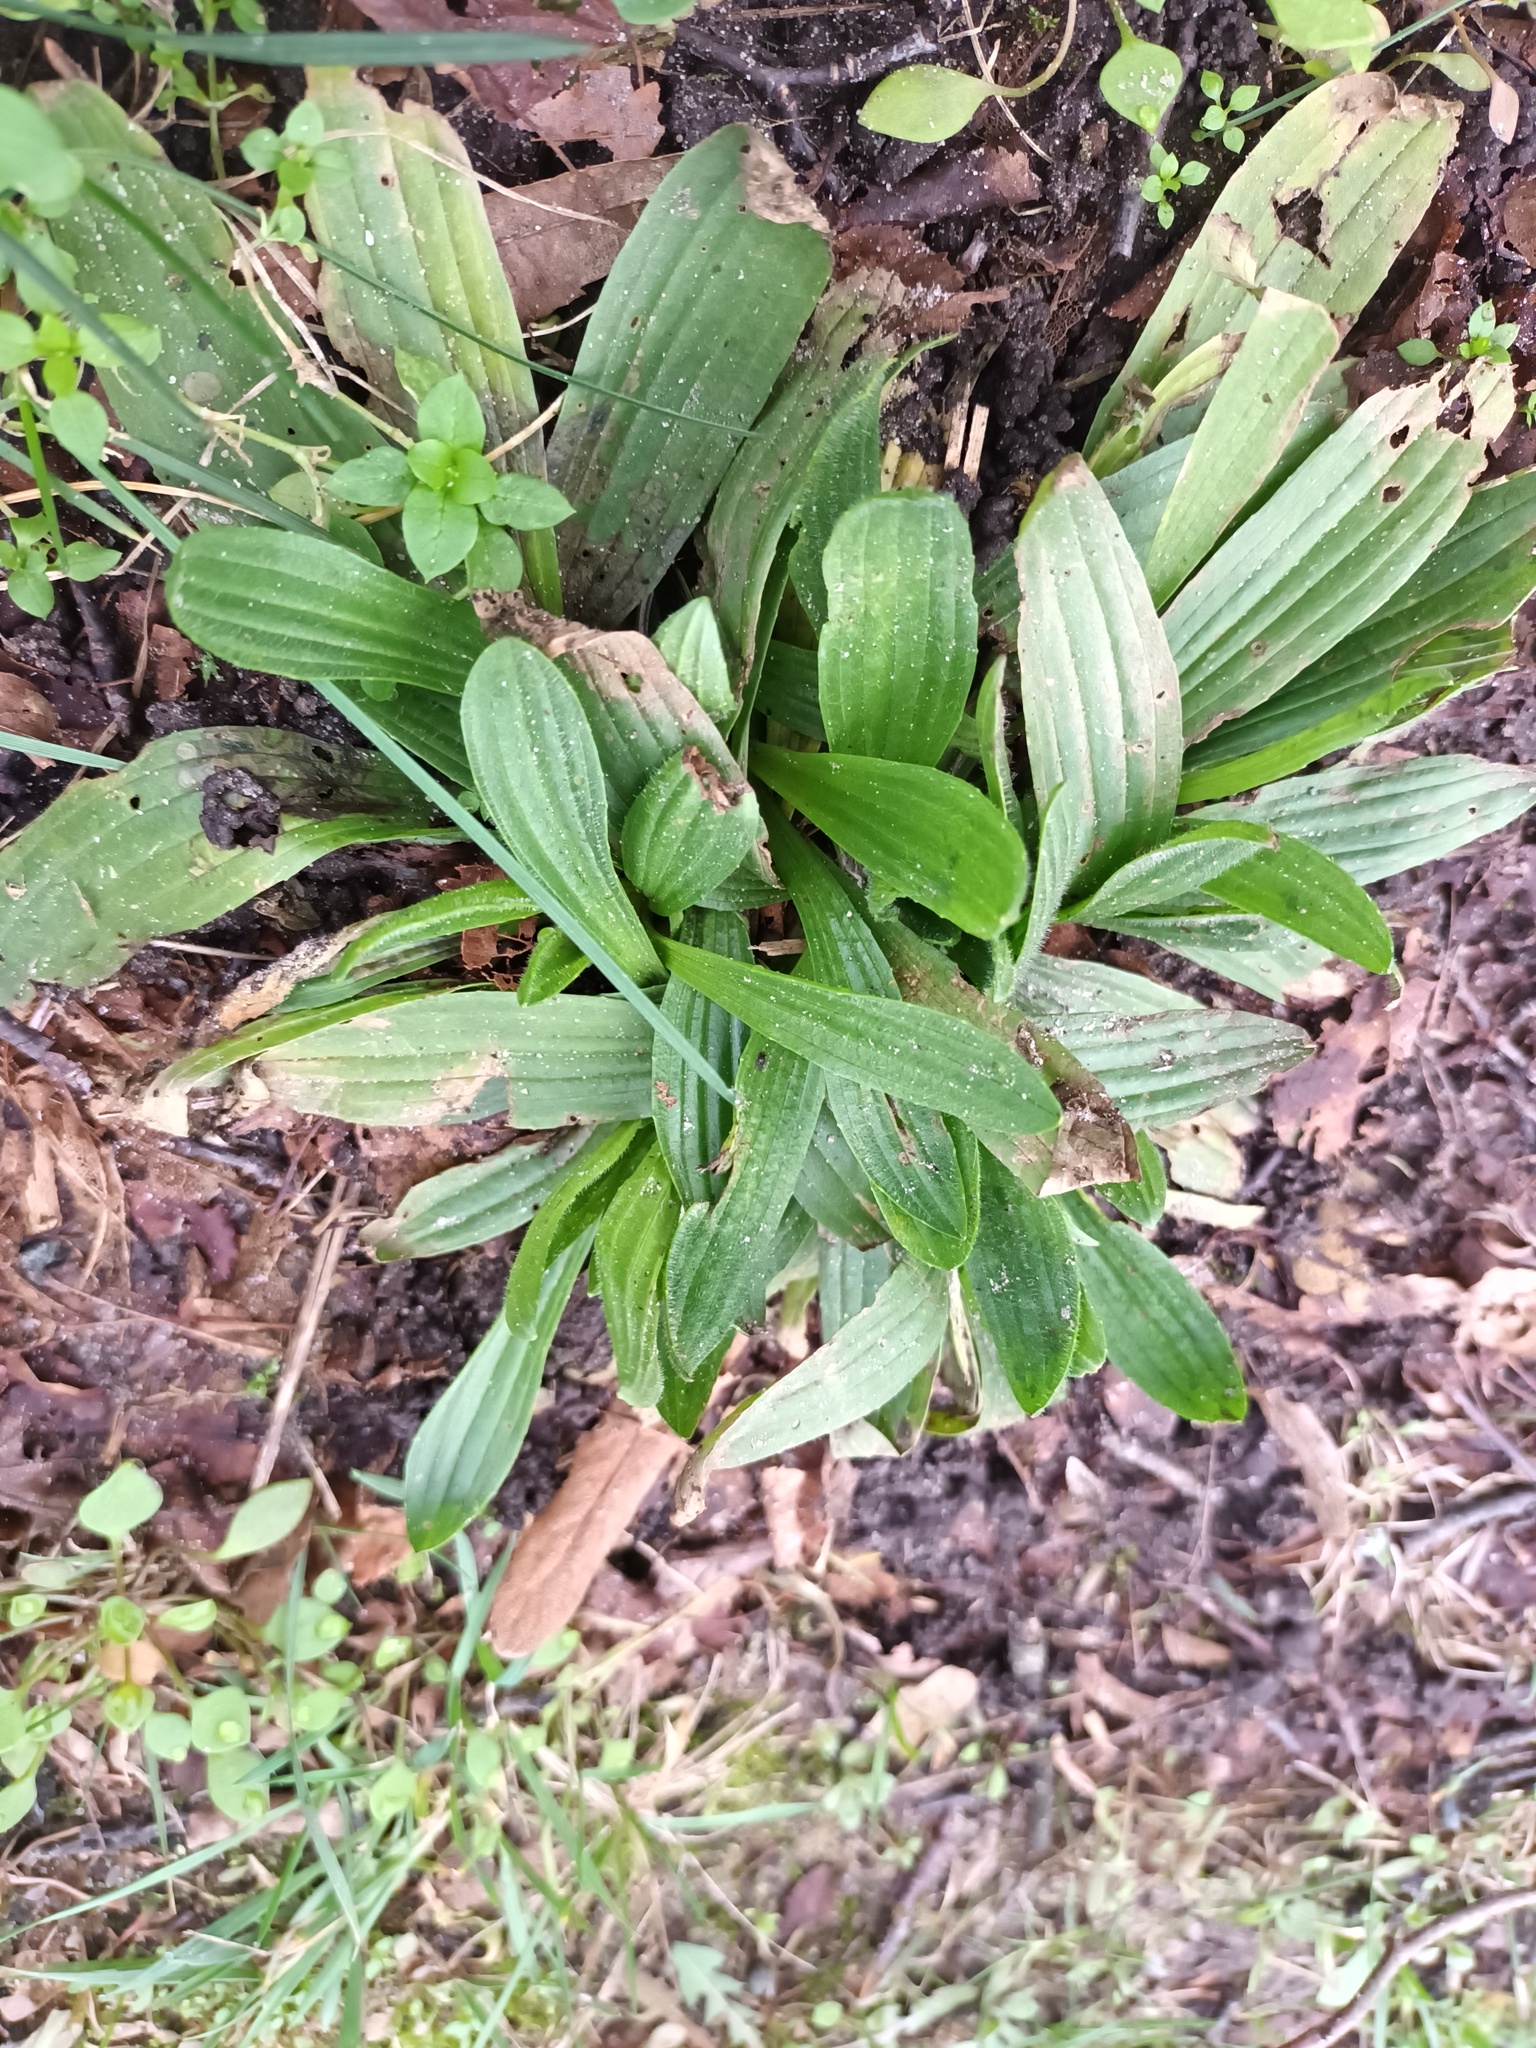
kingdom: Plantae
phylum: Tracheophyta
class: Magnoliopsida
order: Lamiales
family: Plantaginaceae
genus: Plantago
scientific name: Plantago lanceolata
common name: Ribwort plantain
